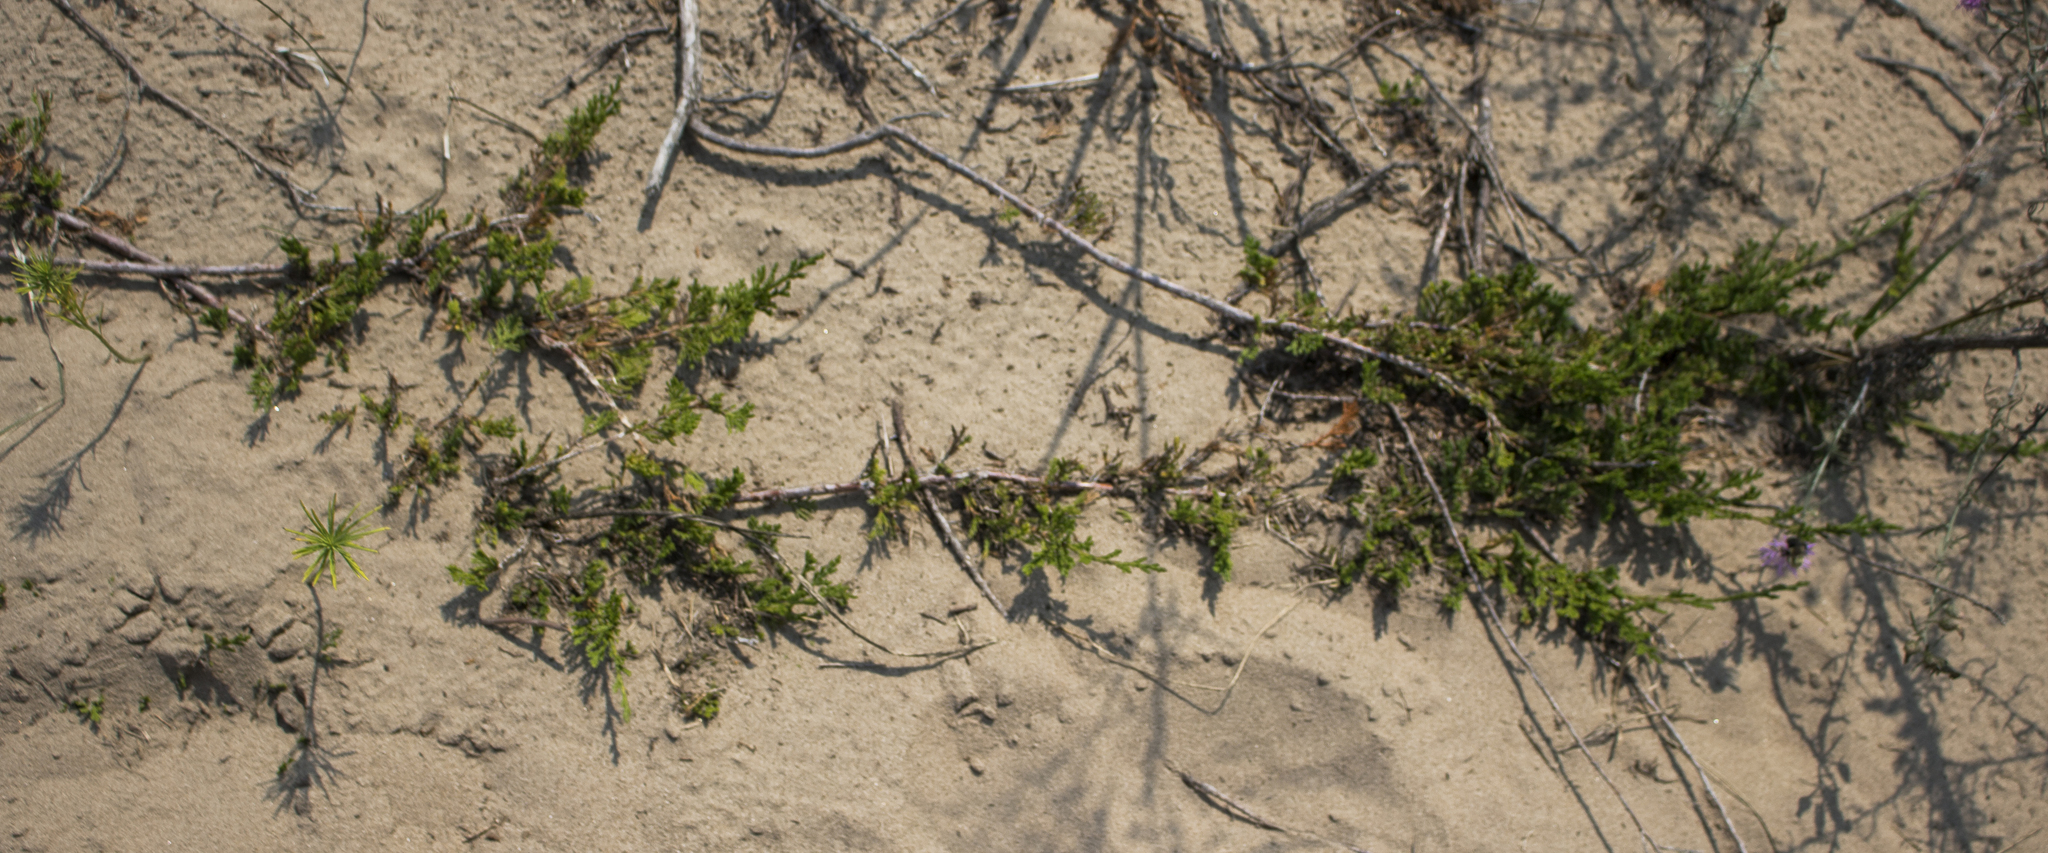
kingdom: Plantae
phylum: Tracheophyta
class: Pinopsida
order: Pinales
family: Cupressaceae
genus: Juniperus
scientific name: Juniperus horizontalis
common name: Creeping juniper
